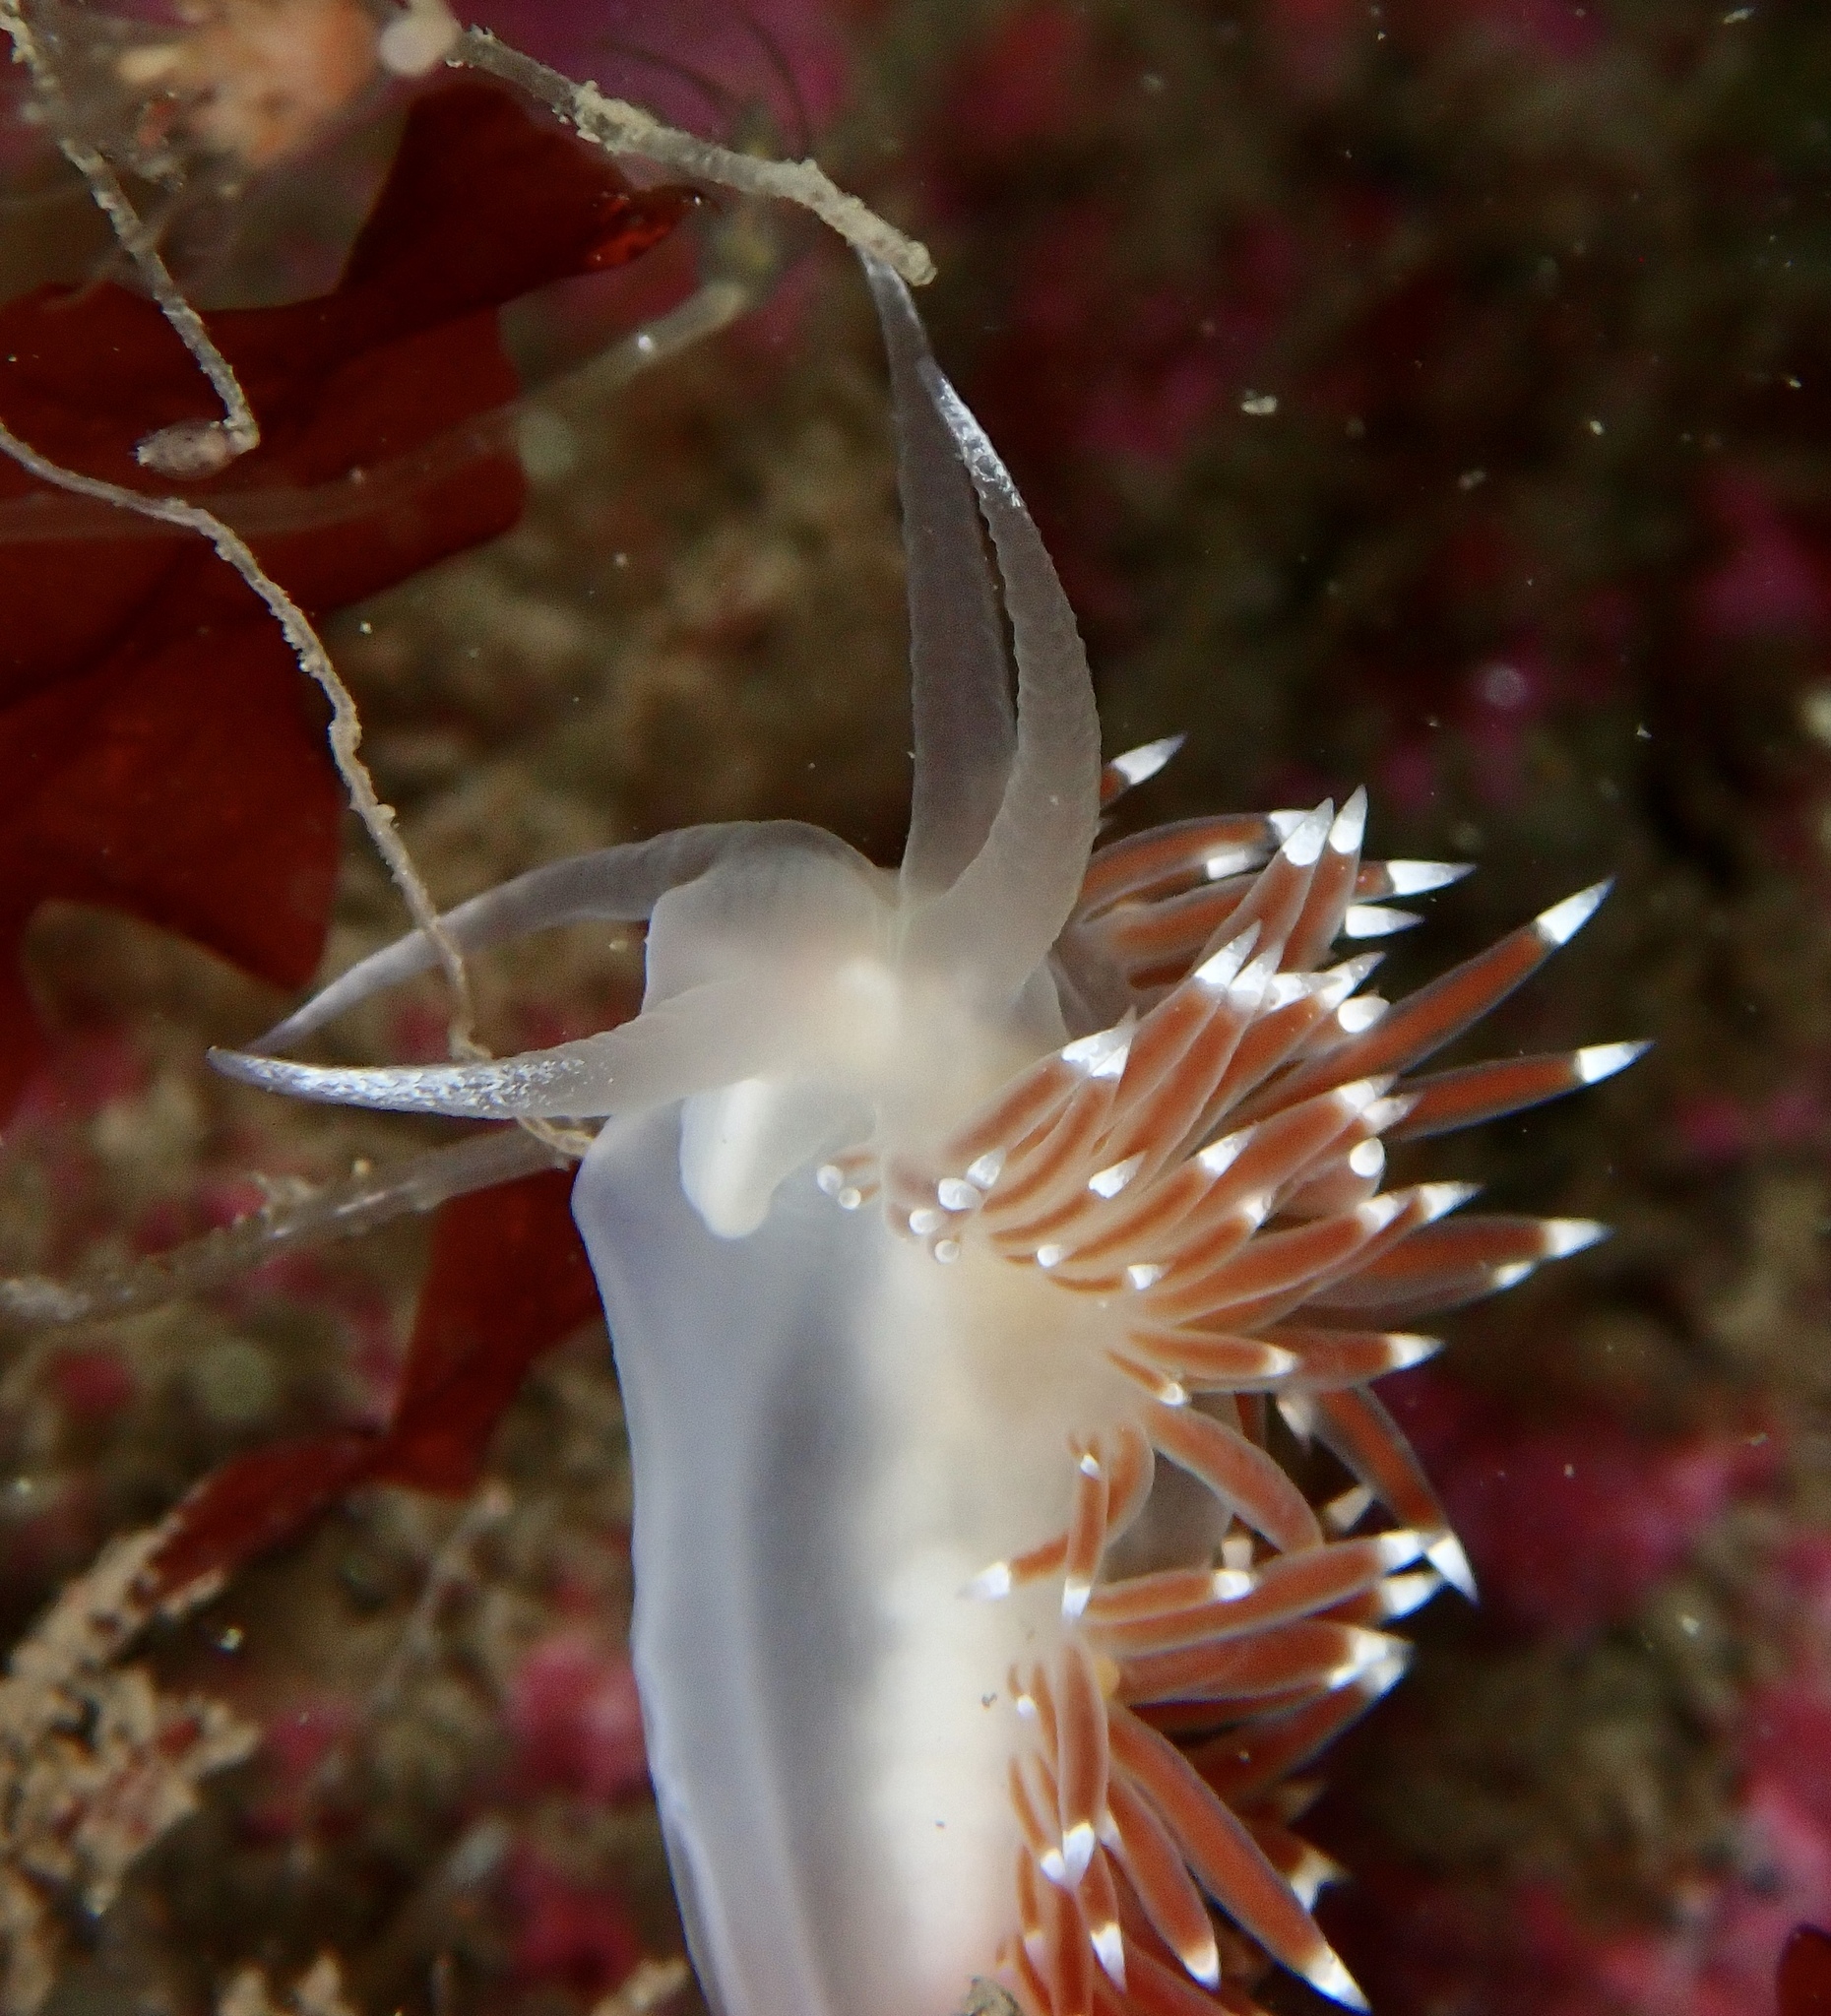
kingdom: Animalia
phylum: Mollusca
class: Gastropoda
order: Nudibranchia
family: Coryphellidae
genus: Coryphella
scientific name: Coryphella browni
